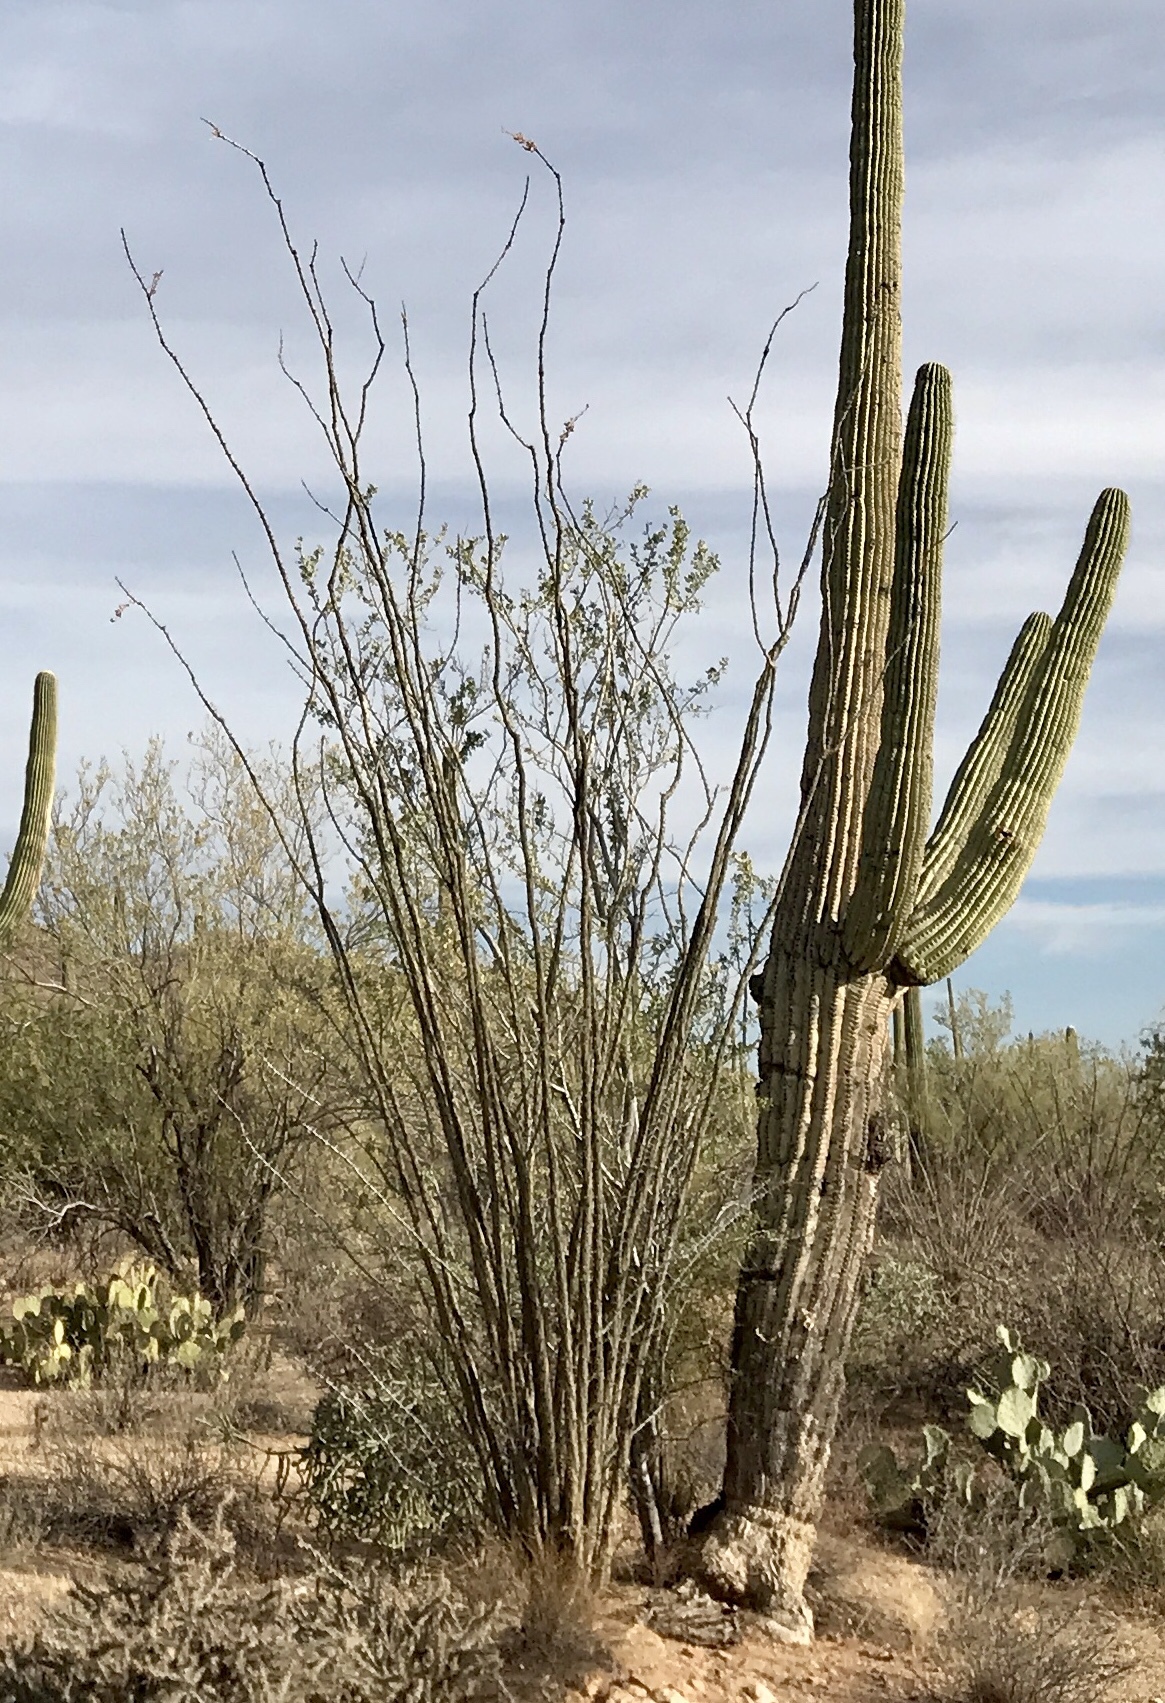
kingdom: Plantae
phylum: Tracheophyta
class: Magnoliopsida
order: Ericales
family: Fouquieriaceae
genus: Fouquieria
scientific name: Fouquieria splendens
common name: Vine-cactus
